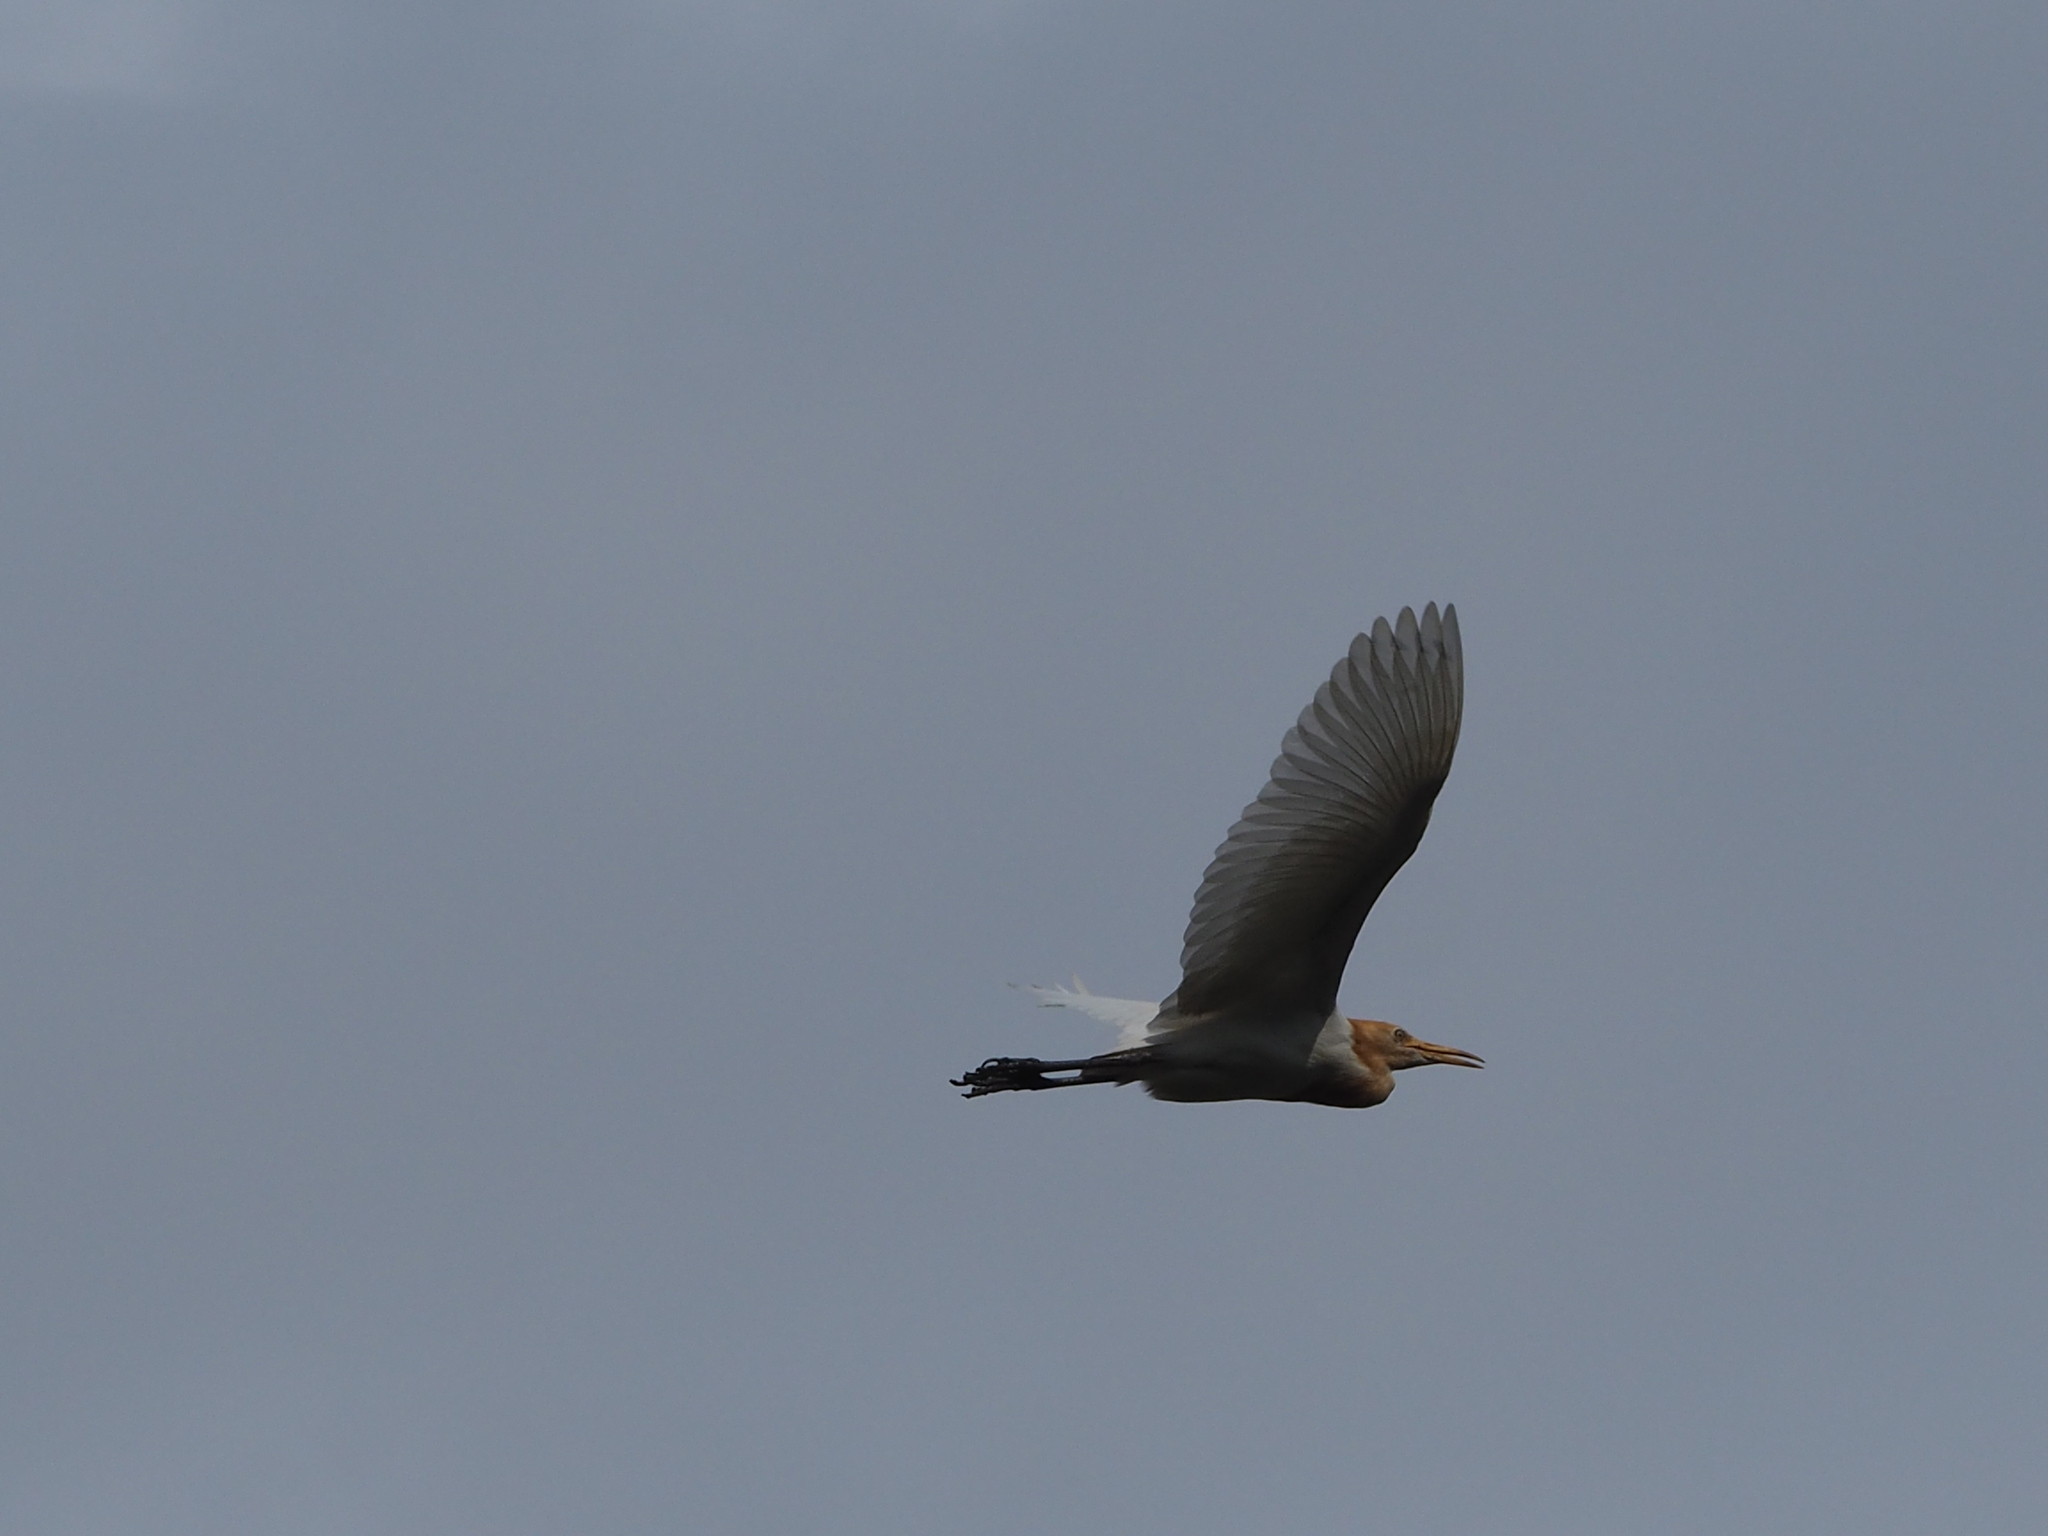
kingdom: Animalia
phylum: Chordata
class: Aves
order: Pelecaniformes
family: Ardeidae
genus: Bubulcus
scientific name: Bubulcus coromandus
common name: Eastern cattle egret
